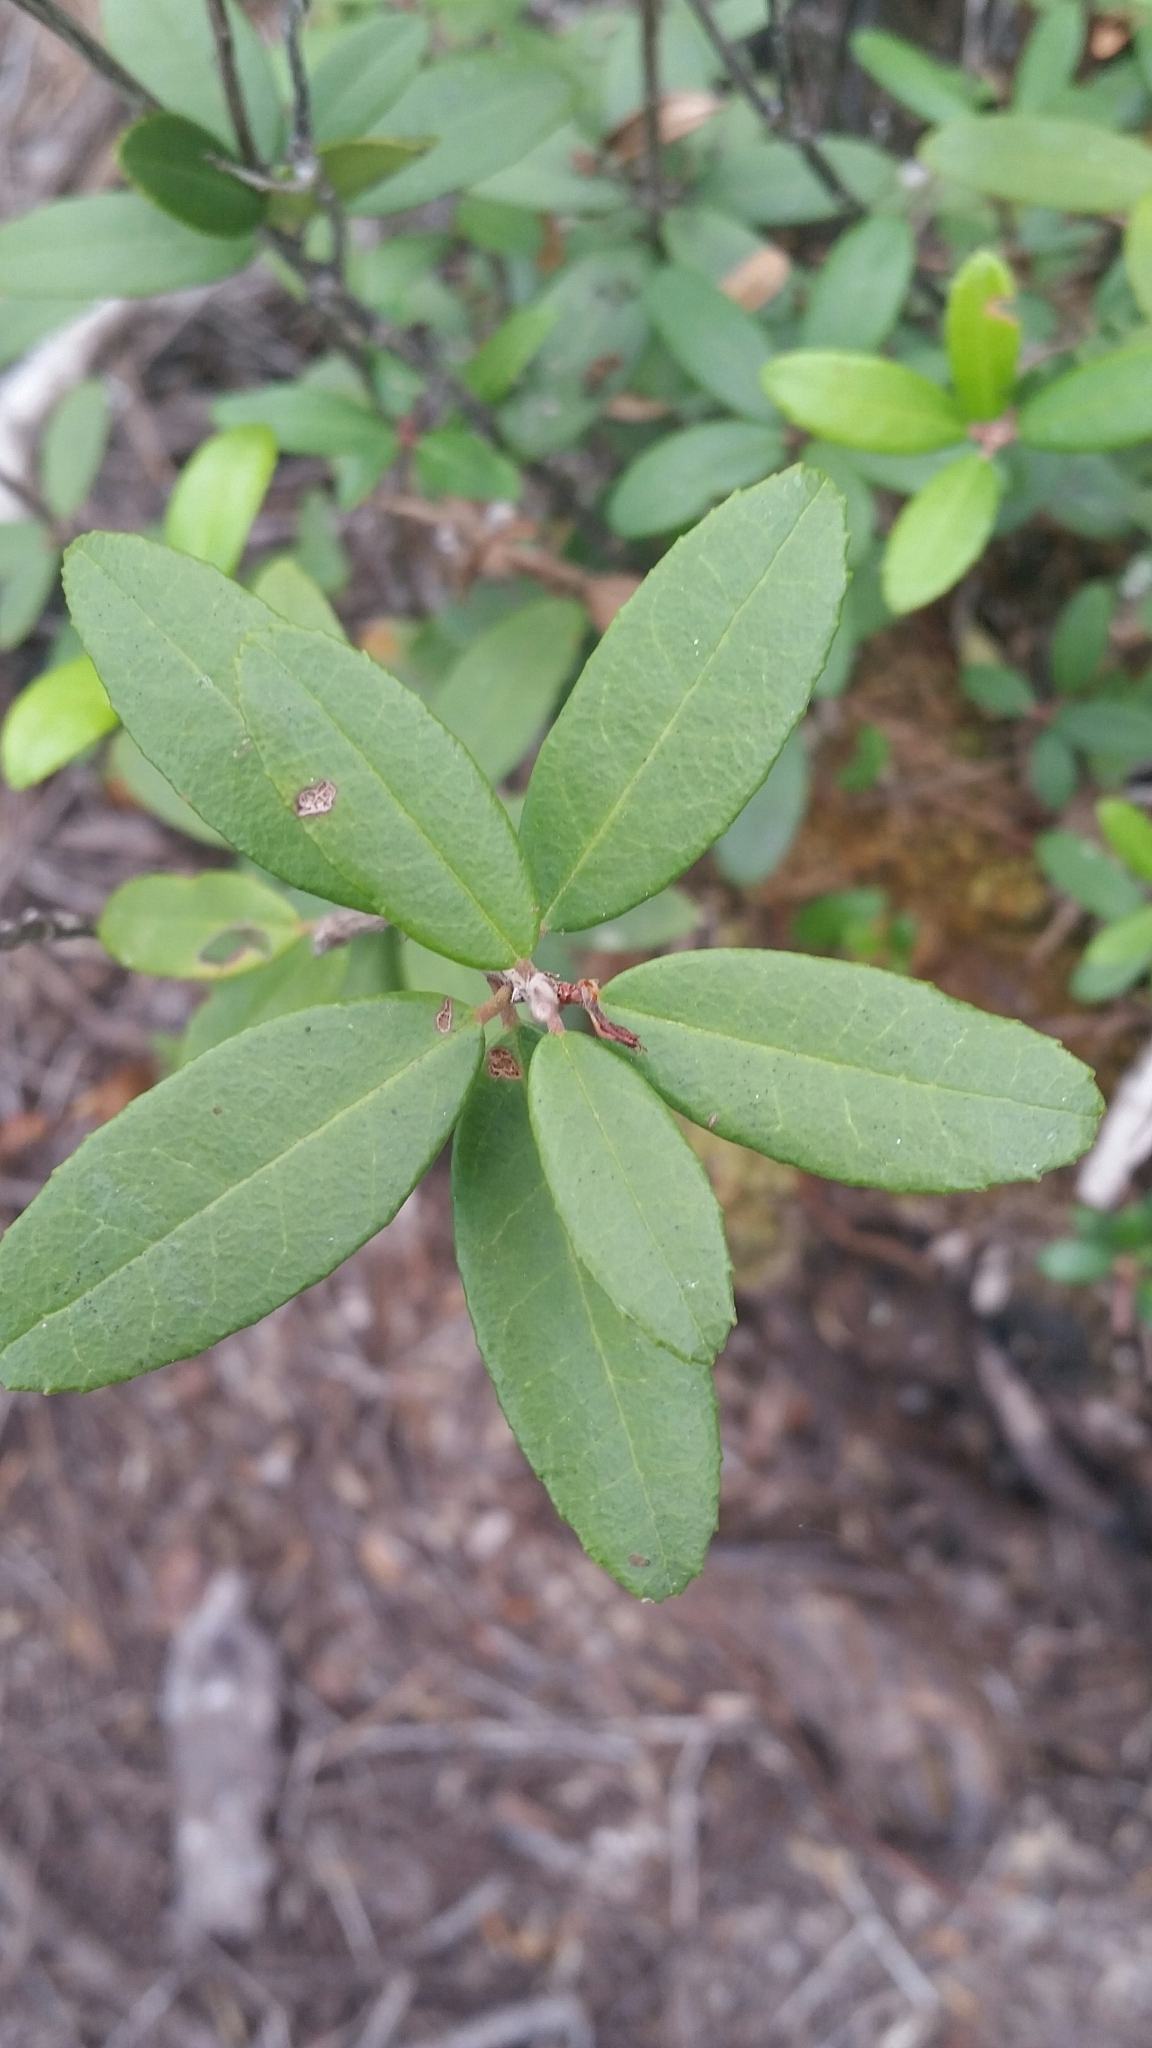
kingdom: Plantae
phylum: Tracheophyta
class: Magnoliopsida
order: Ericales
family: Ericaceae
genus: Pieris
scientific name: Pieris phillyreifolia
